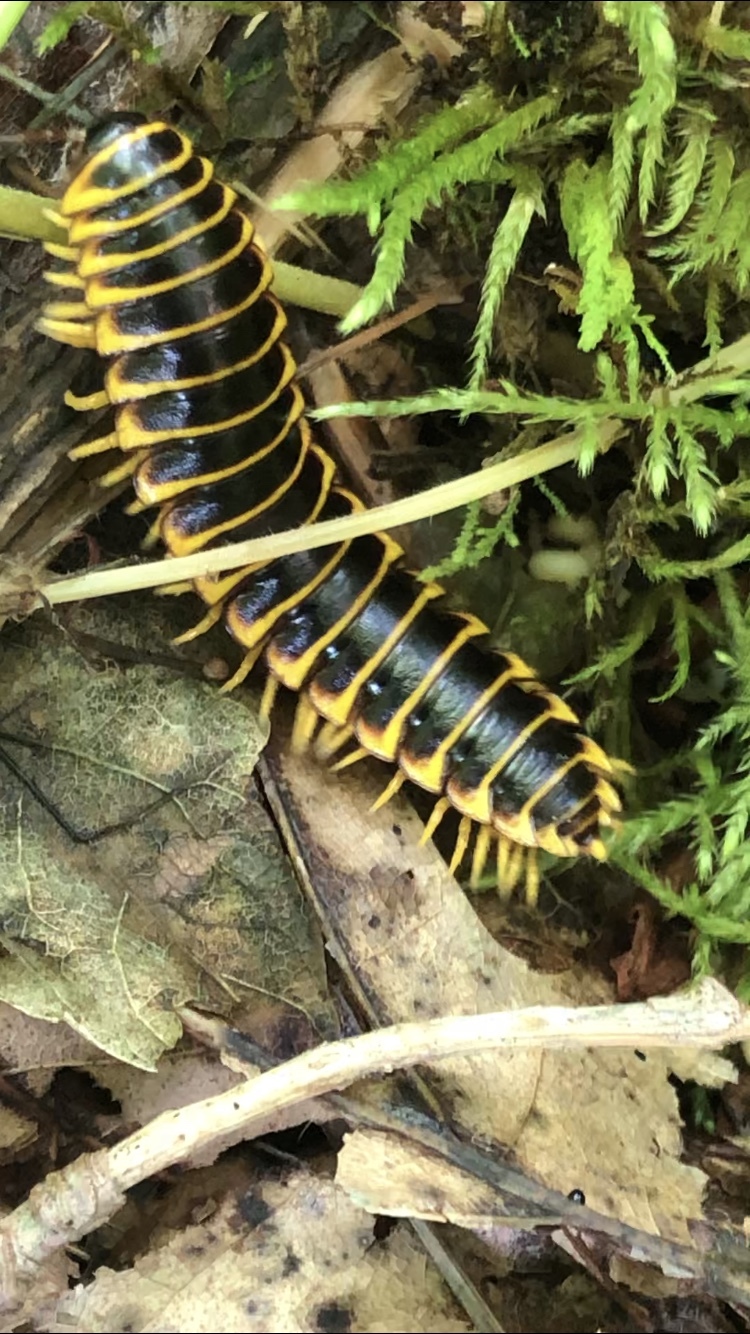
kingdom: Animalia
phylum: Arthropoda
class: Diplopoda
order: Polydesmida
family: Xystodesmidae
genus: Apheloria
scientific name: Apheloria virginiensis
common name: Black-and-gold flat millipede
